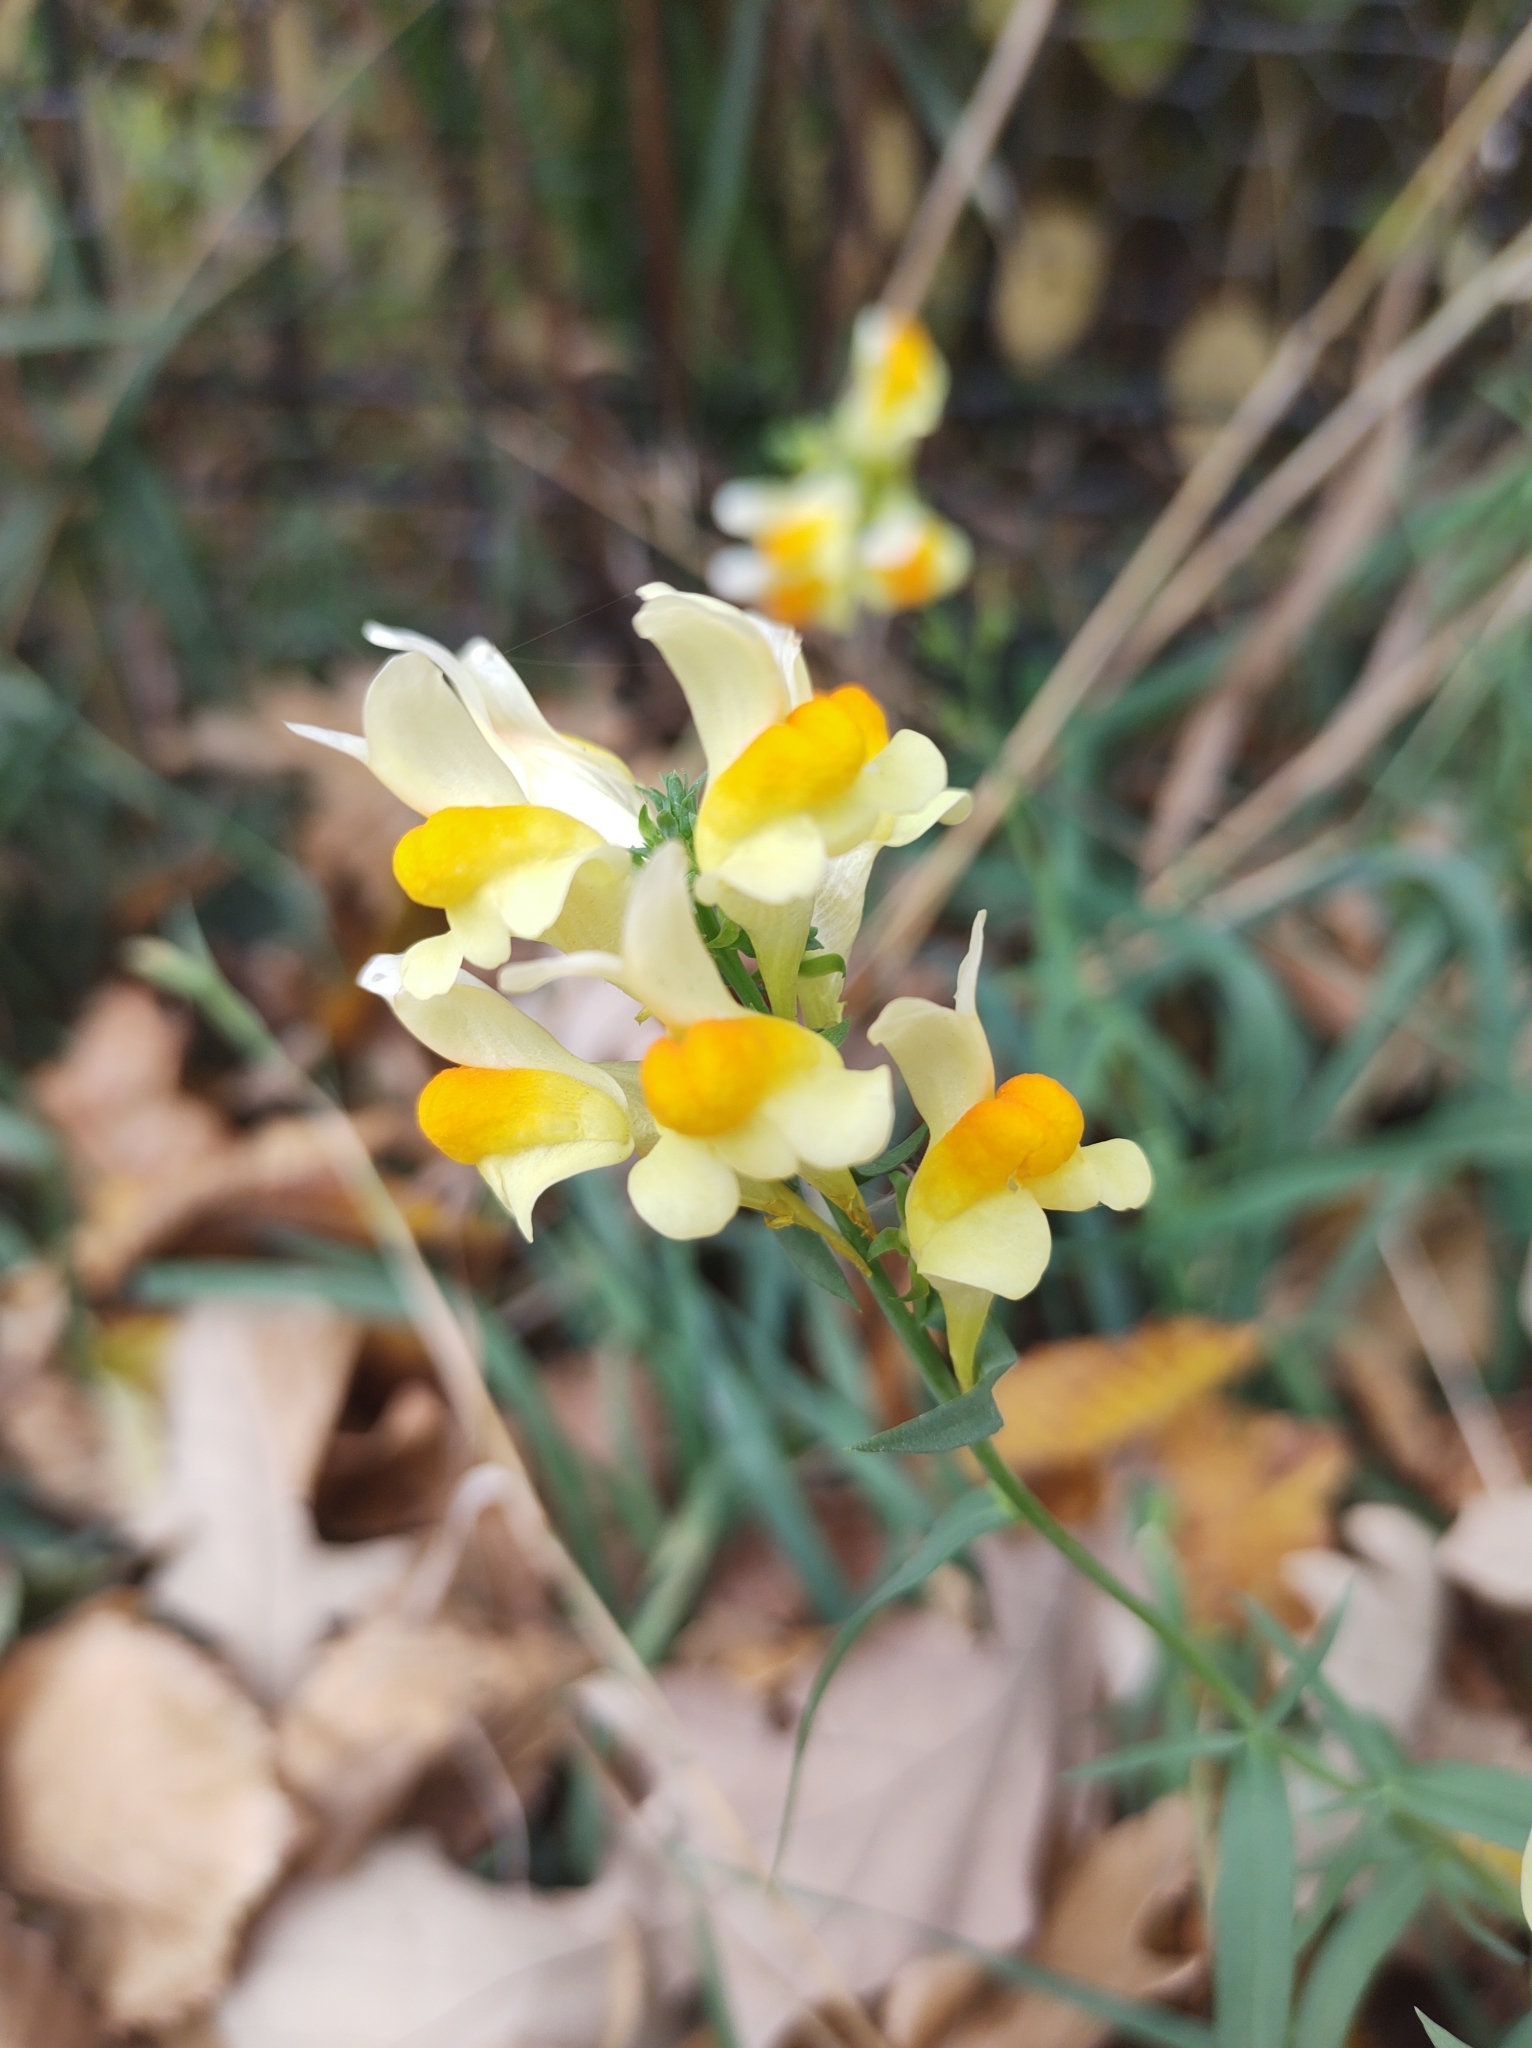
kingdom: Plantae
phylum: Tracheophyta
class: Magnoliopsida
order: Lamiales
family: Plantaginaceae
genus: Linaria
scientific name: Linaria vulgaris
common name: Butter and eggs
